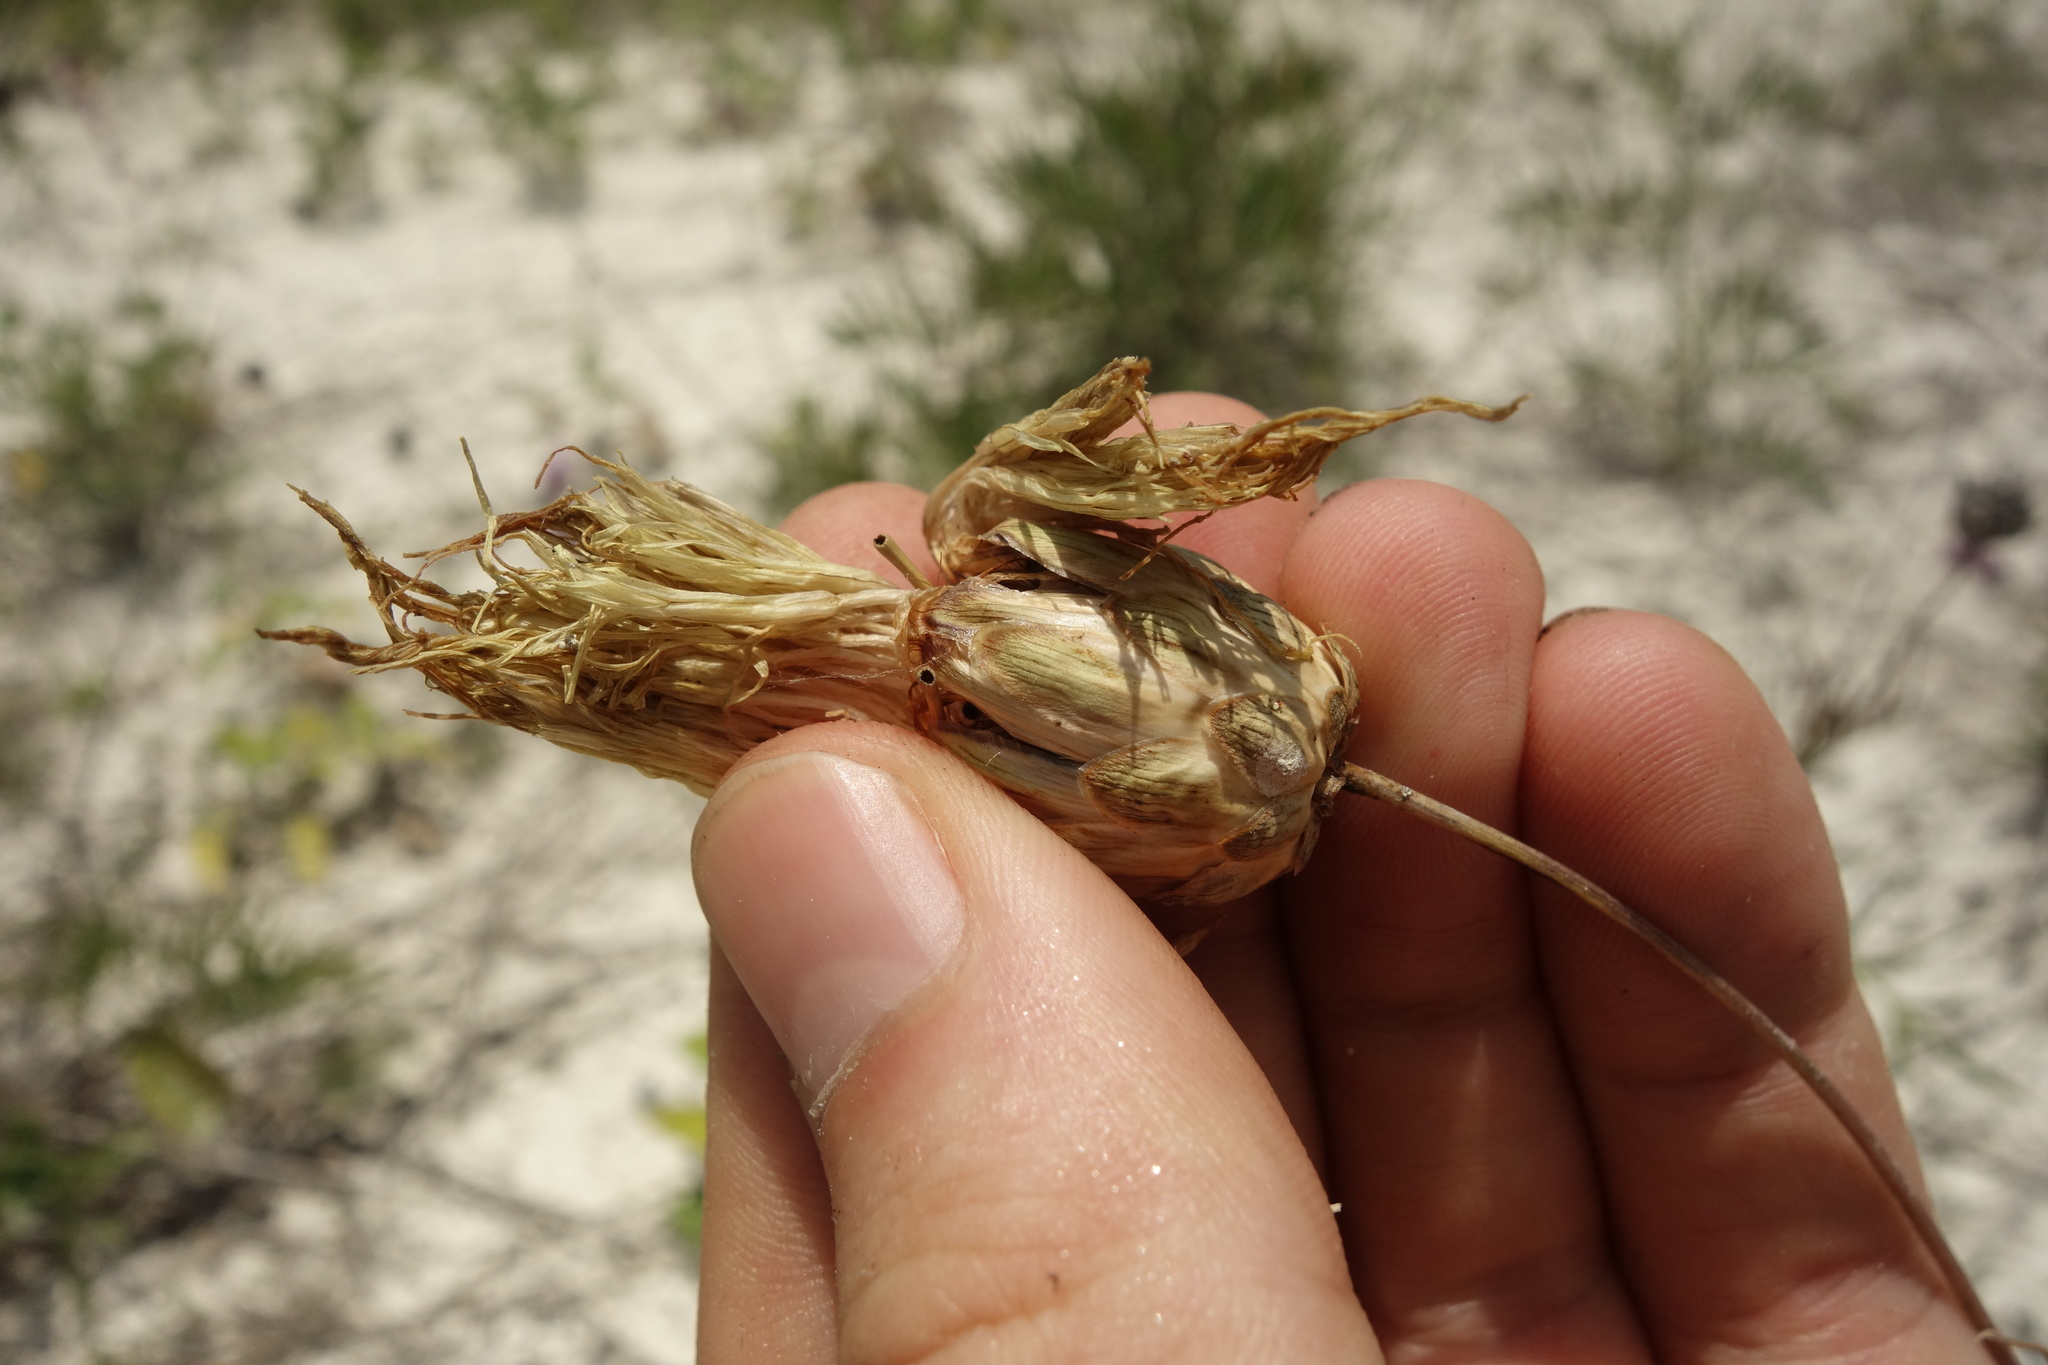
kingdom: Plantae
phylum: Tracheophyta
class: Magnoliopsida
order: Asterales
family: Asteraceae
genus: Rhaponticoides
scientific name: Rhaponticoides ruthenica
